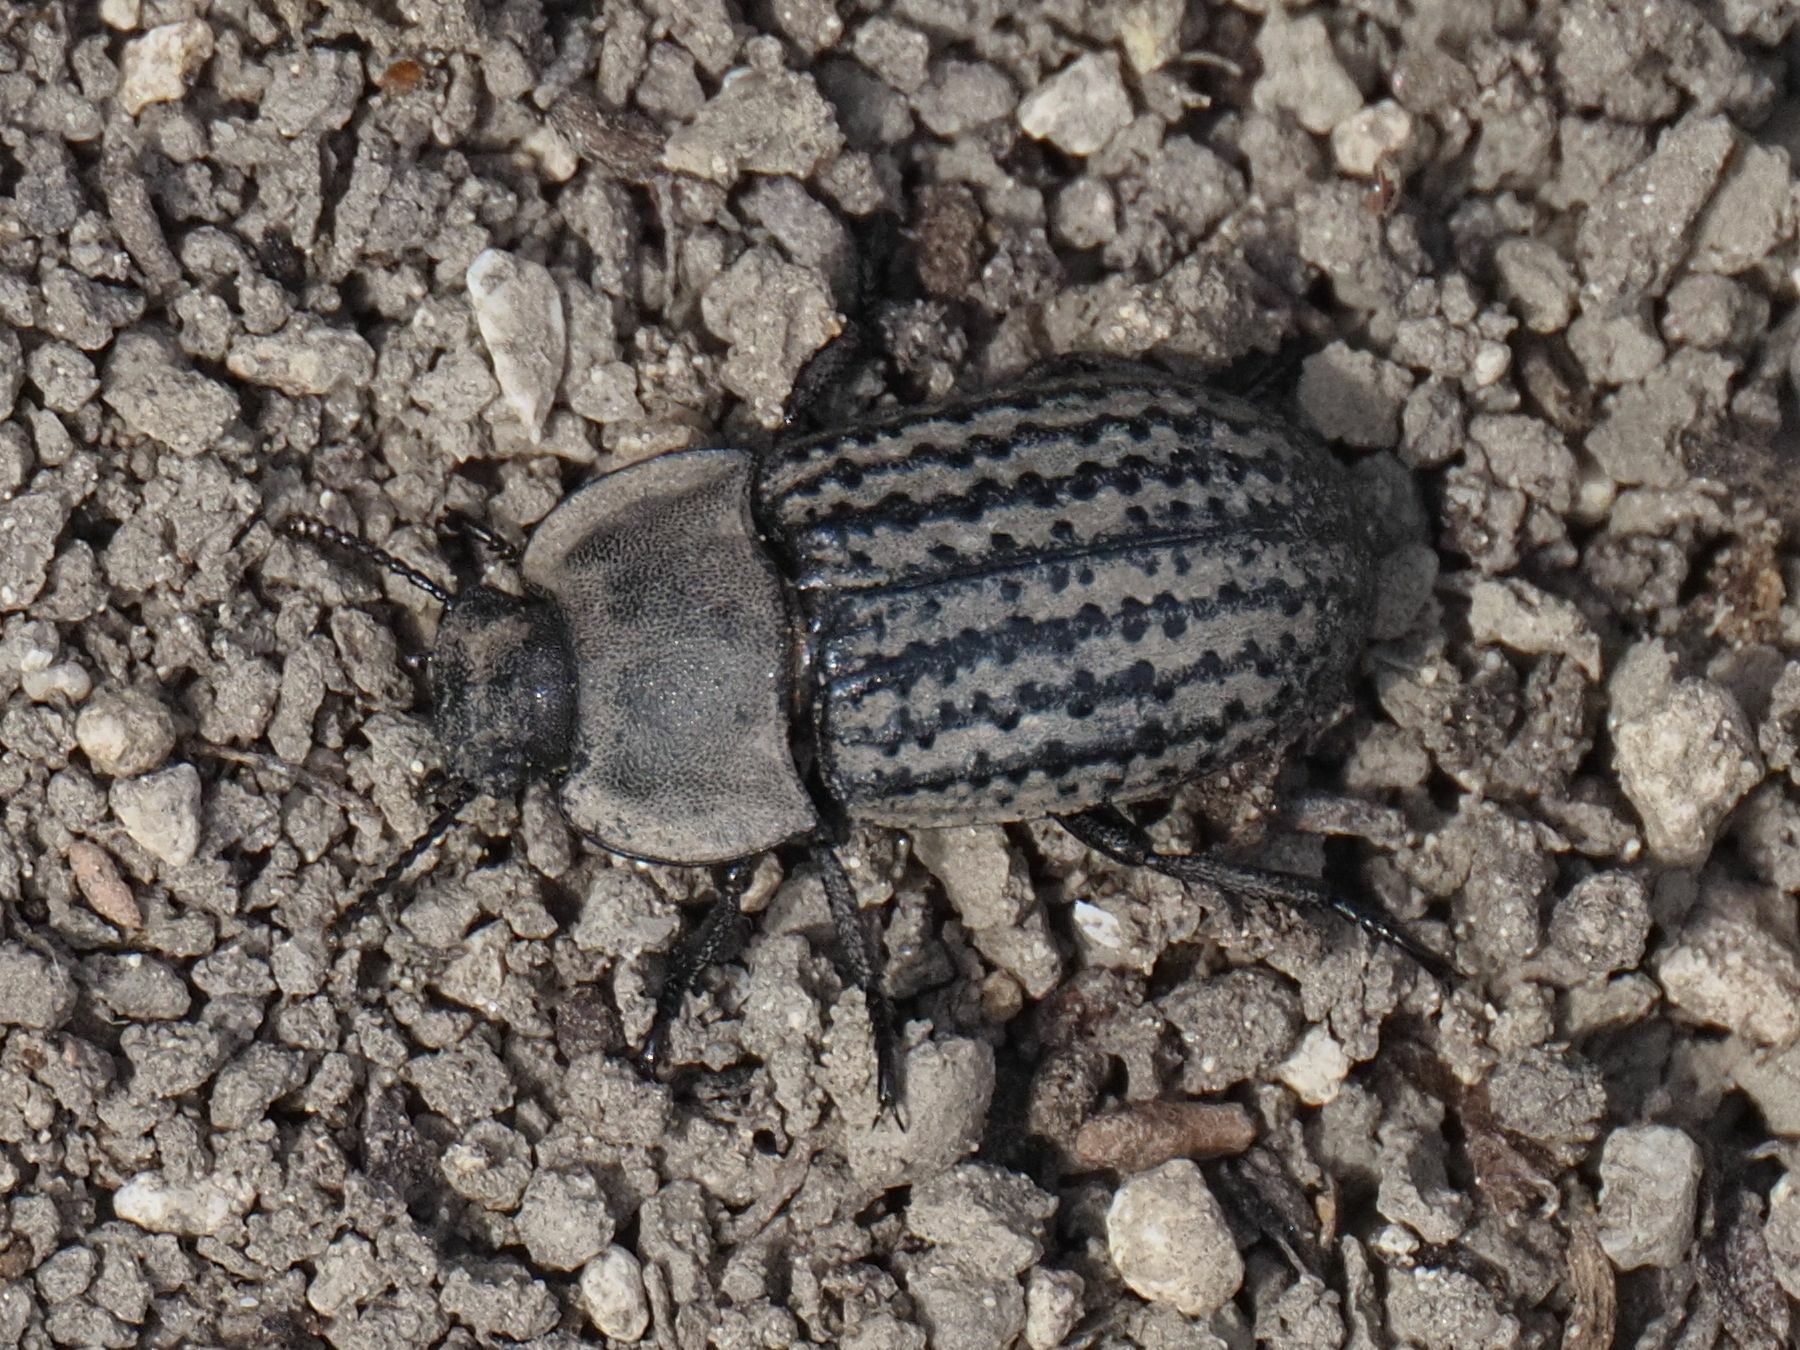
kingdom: Animalia
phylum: Arthropoda
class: Insecta
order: Coleoptera
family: Tenebrionidae
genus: Opatrum
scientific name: Opatrum sabulosum
